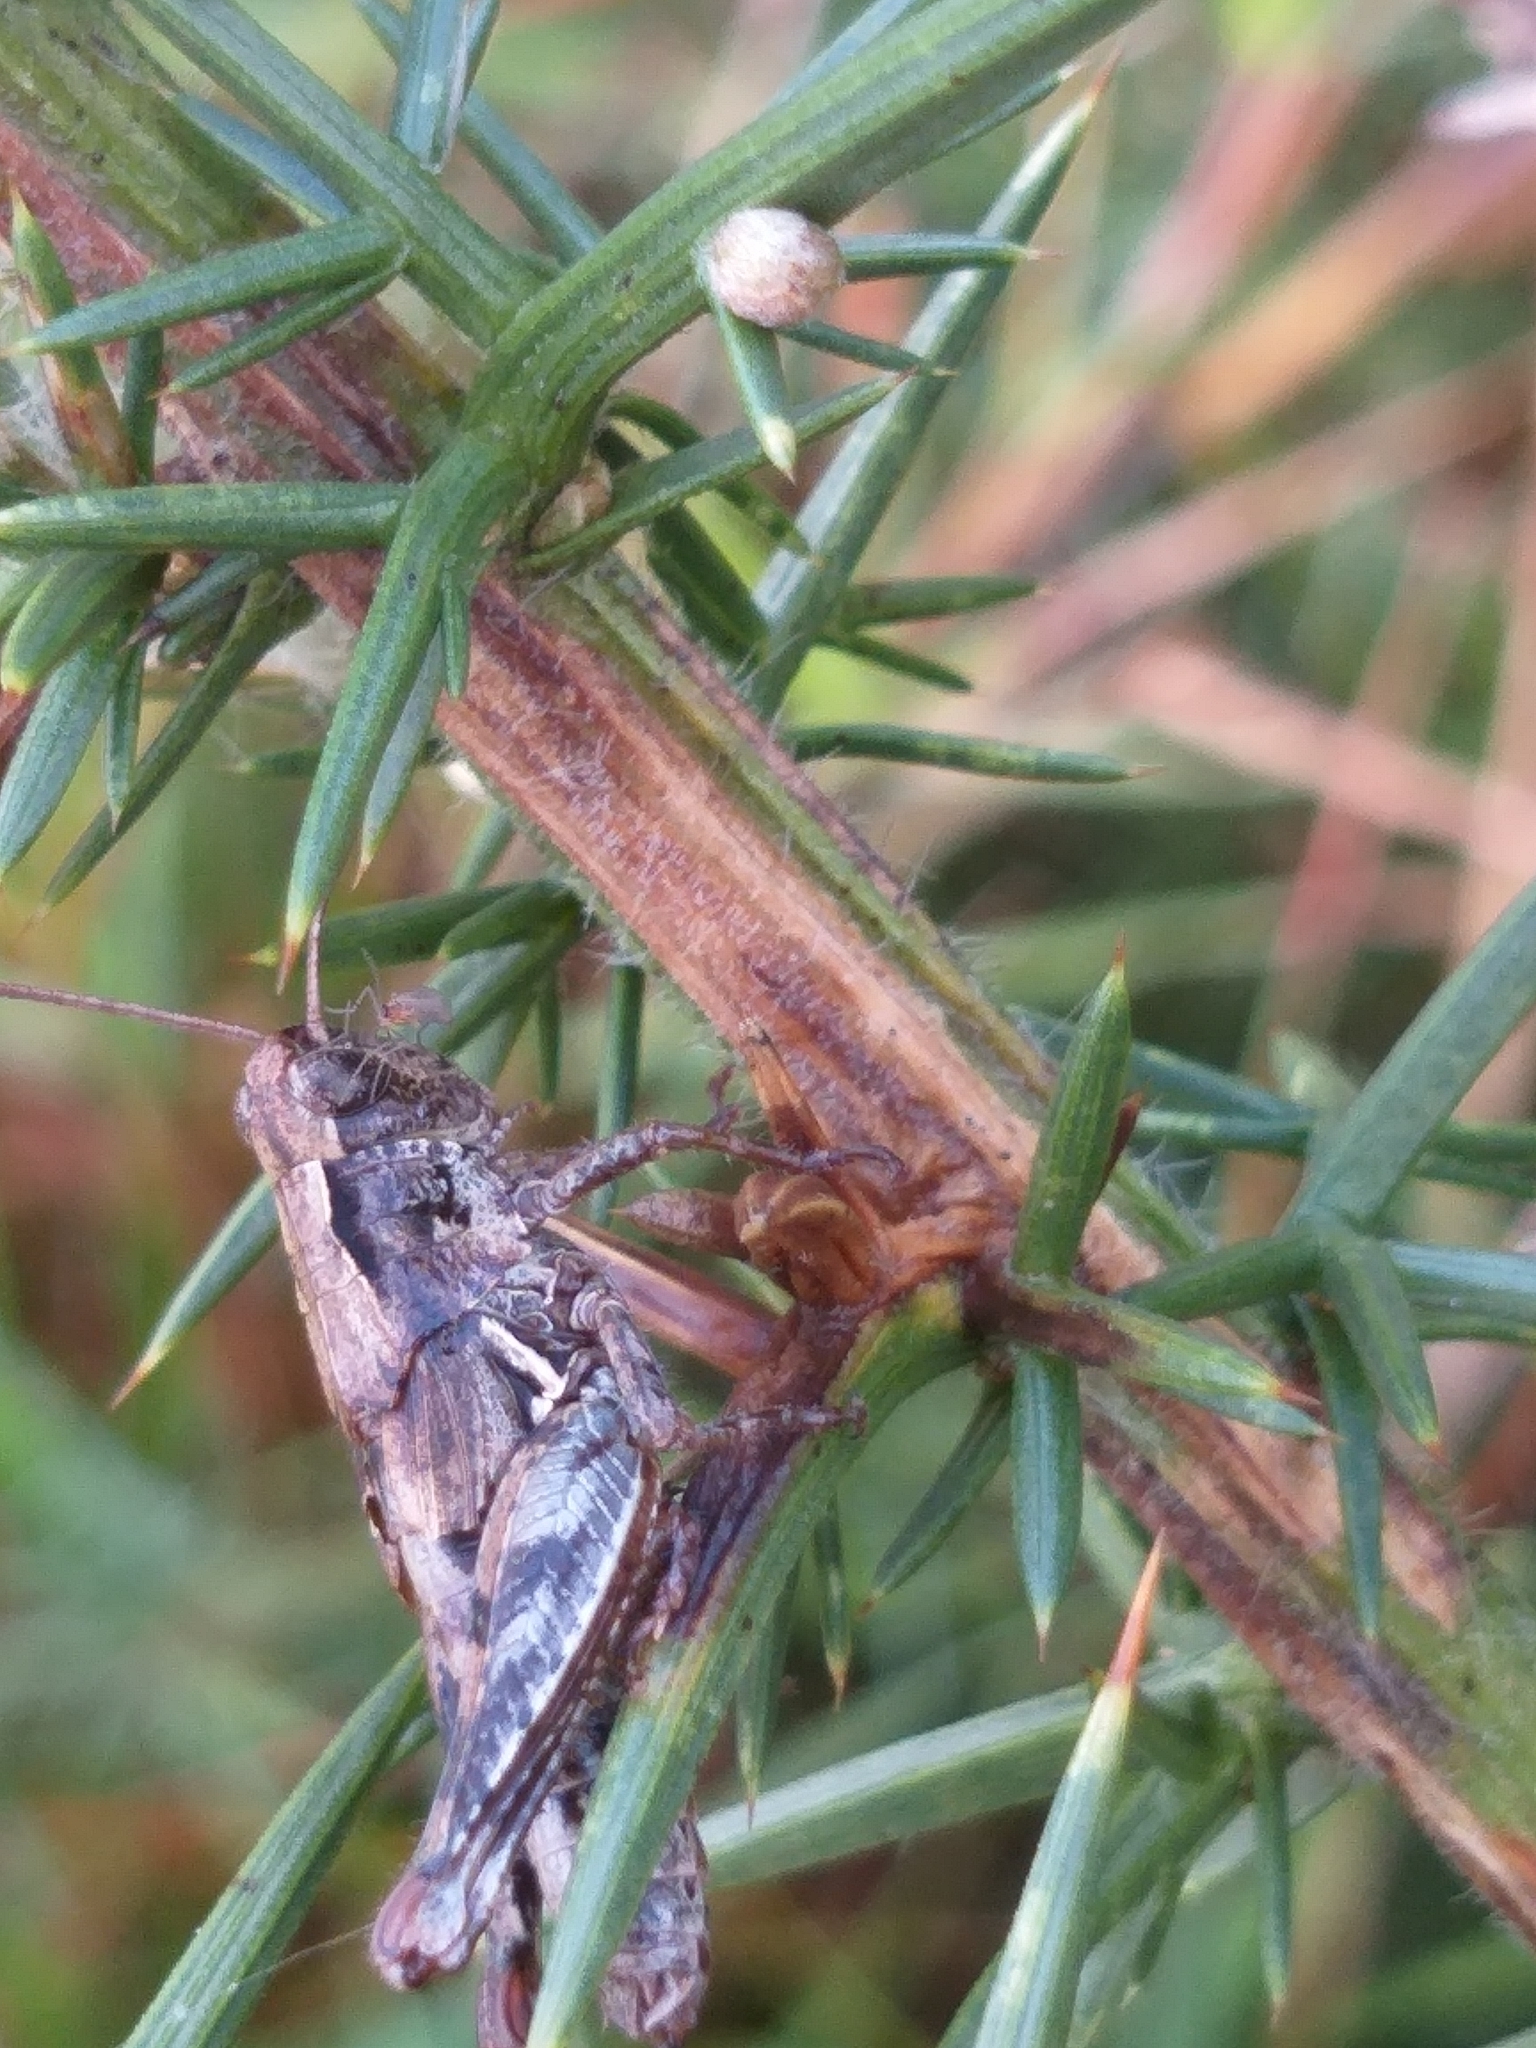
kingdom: Animalia
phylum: Arthropoda
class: Insecta
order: Orthoptera
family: Acrididae
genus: Phaulacridium
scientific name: Phaulacridium marginale
